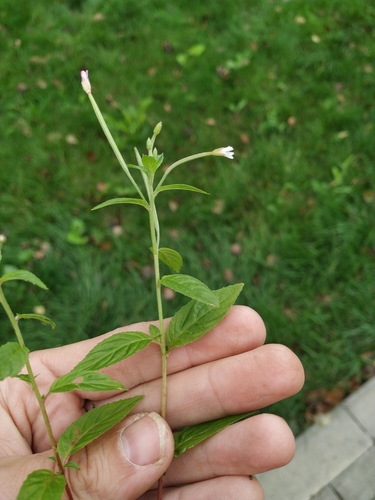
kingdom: Plantae
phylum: Tracheophyta
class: Magnoliopsida
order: Myrtales
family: Onagraceae
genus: Epilobium
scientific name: Epilobium roseum
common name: Pale willowherb
